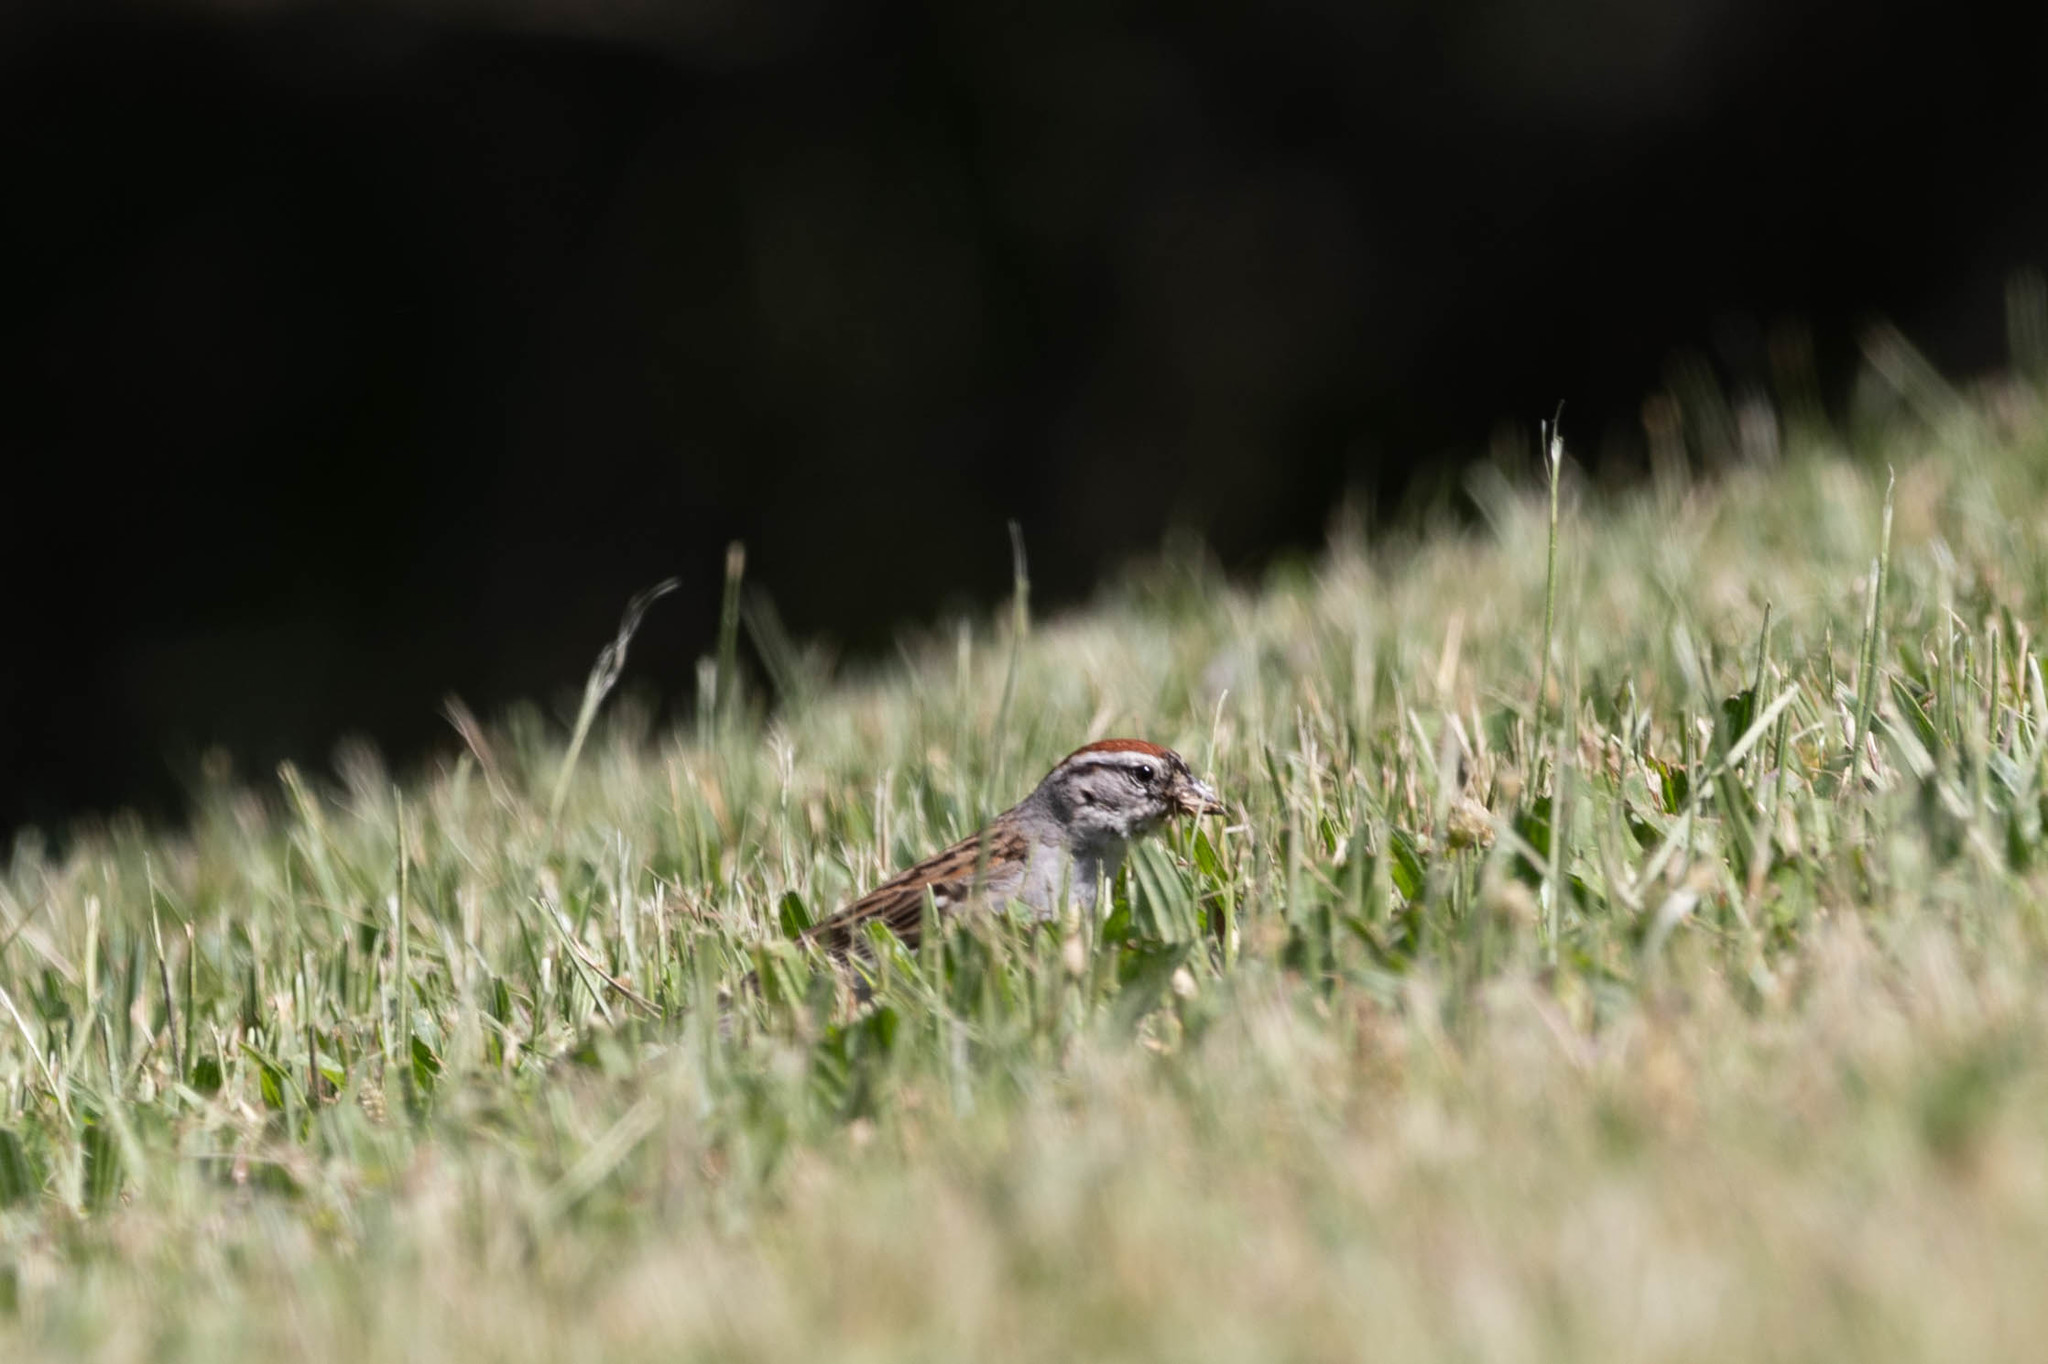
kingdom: Animalia
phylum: Chordata
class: Aves
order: Passeriformes
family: Passerellidae
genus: Spizella
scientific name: Spizella passerina
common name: Chipping sparrow
